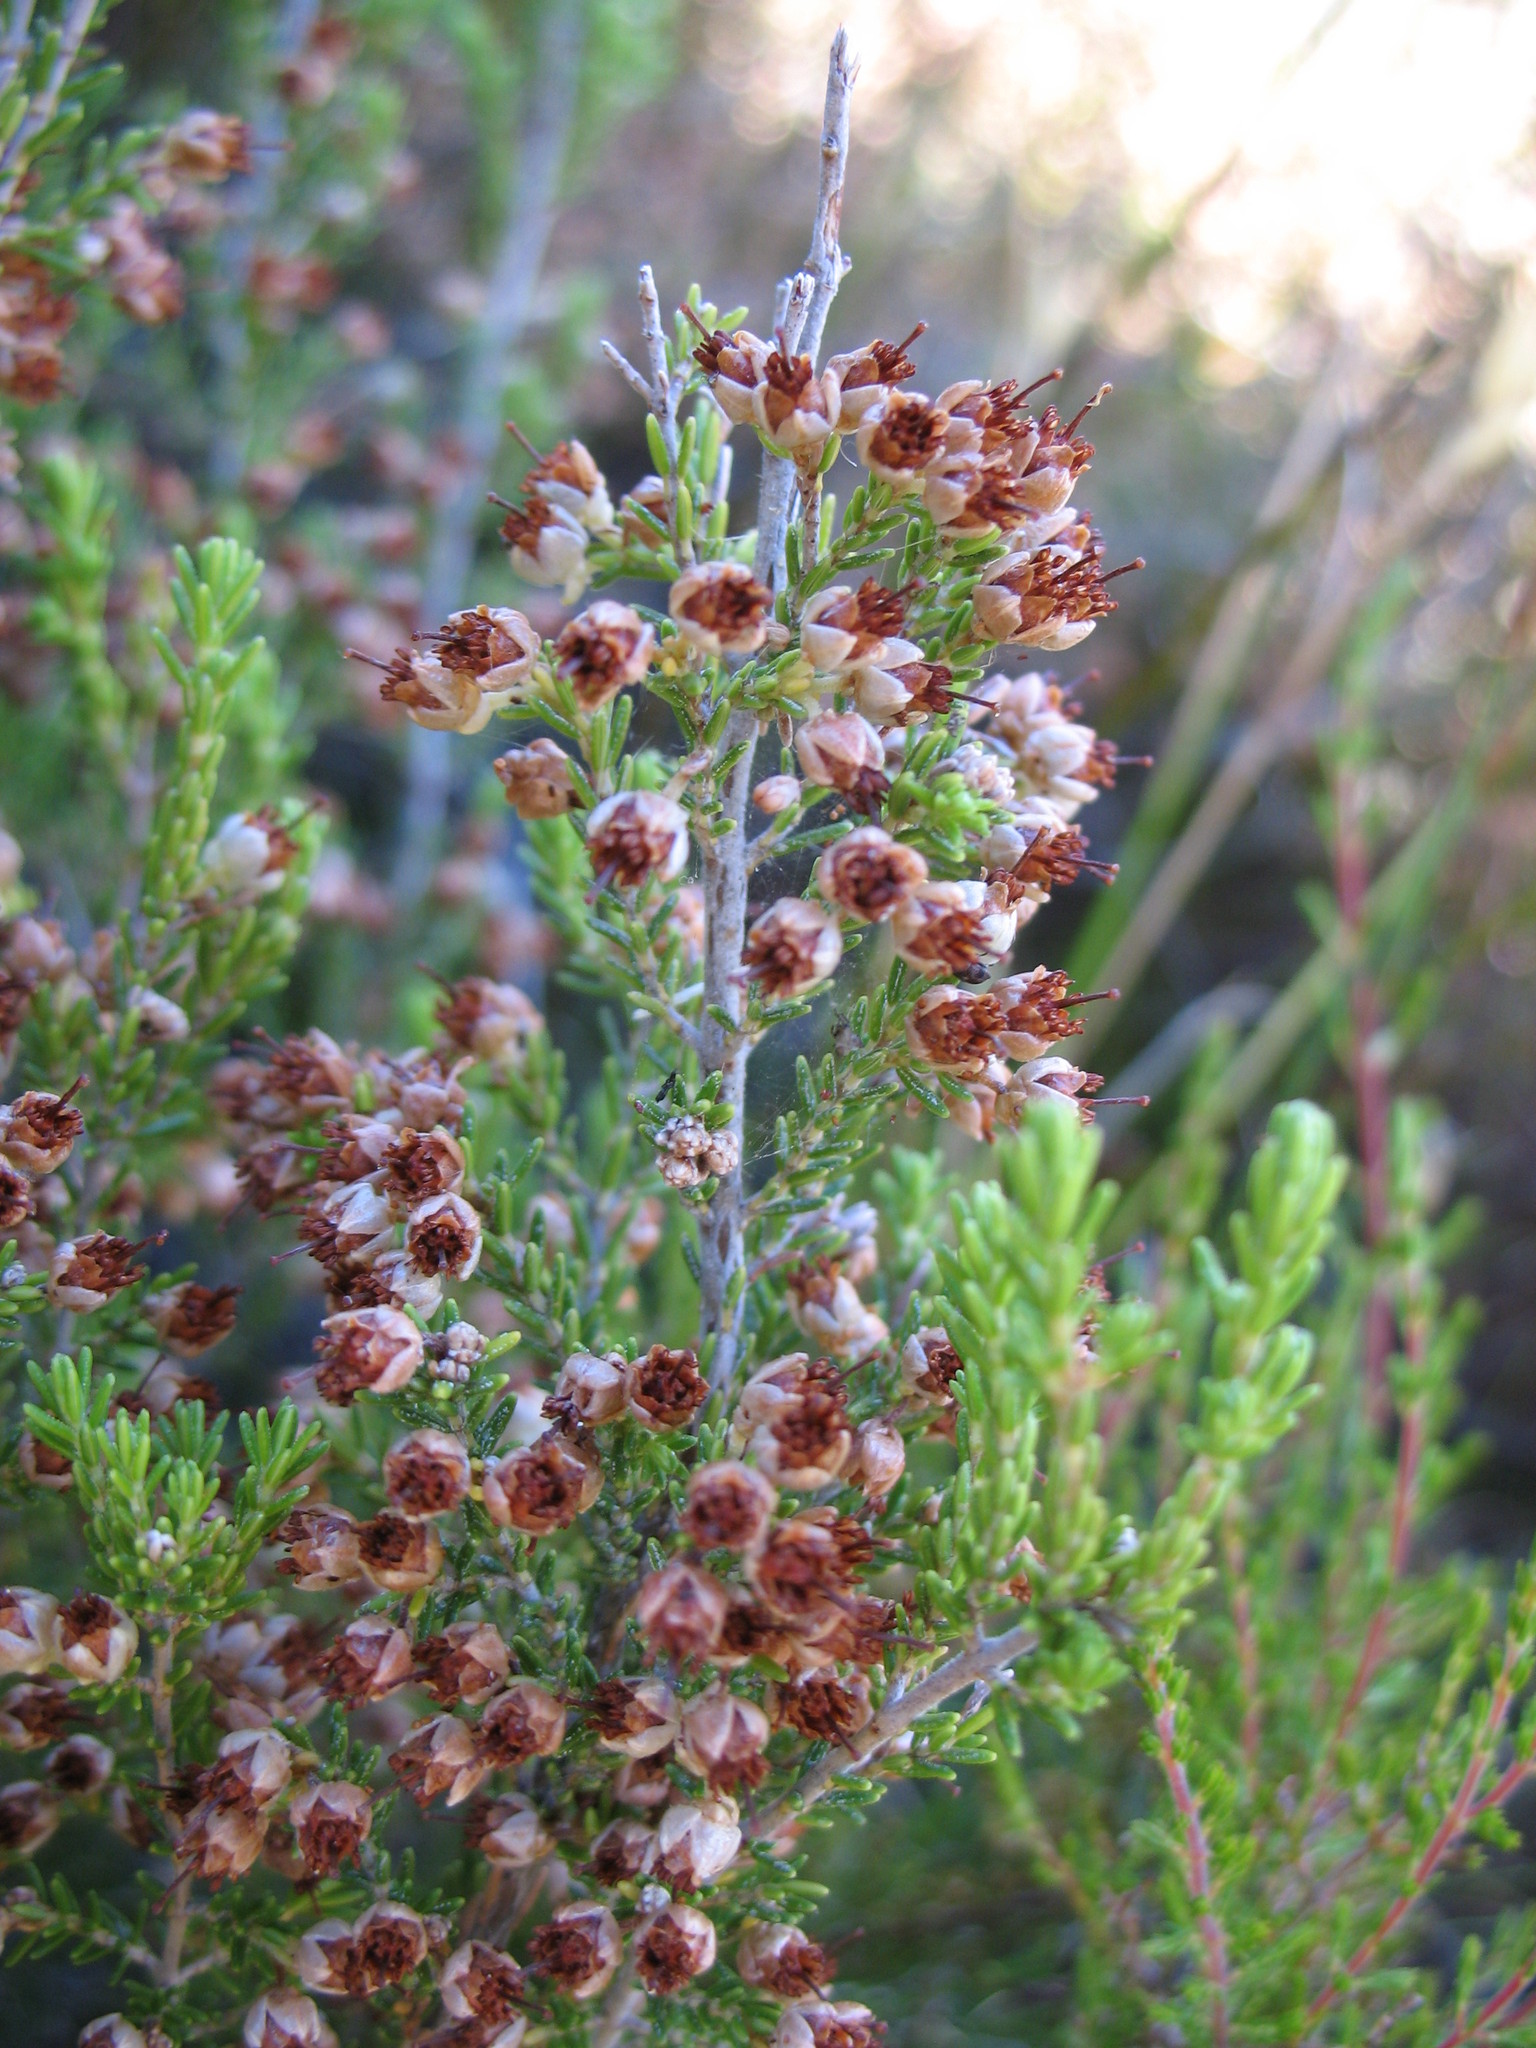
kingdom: Plantae
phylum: Tracheophyta
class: Magnoliopsida
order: Ericales
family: Ericaceae
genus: Erica
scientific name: Erica sonderiana
